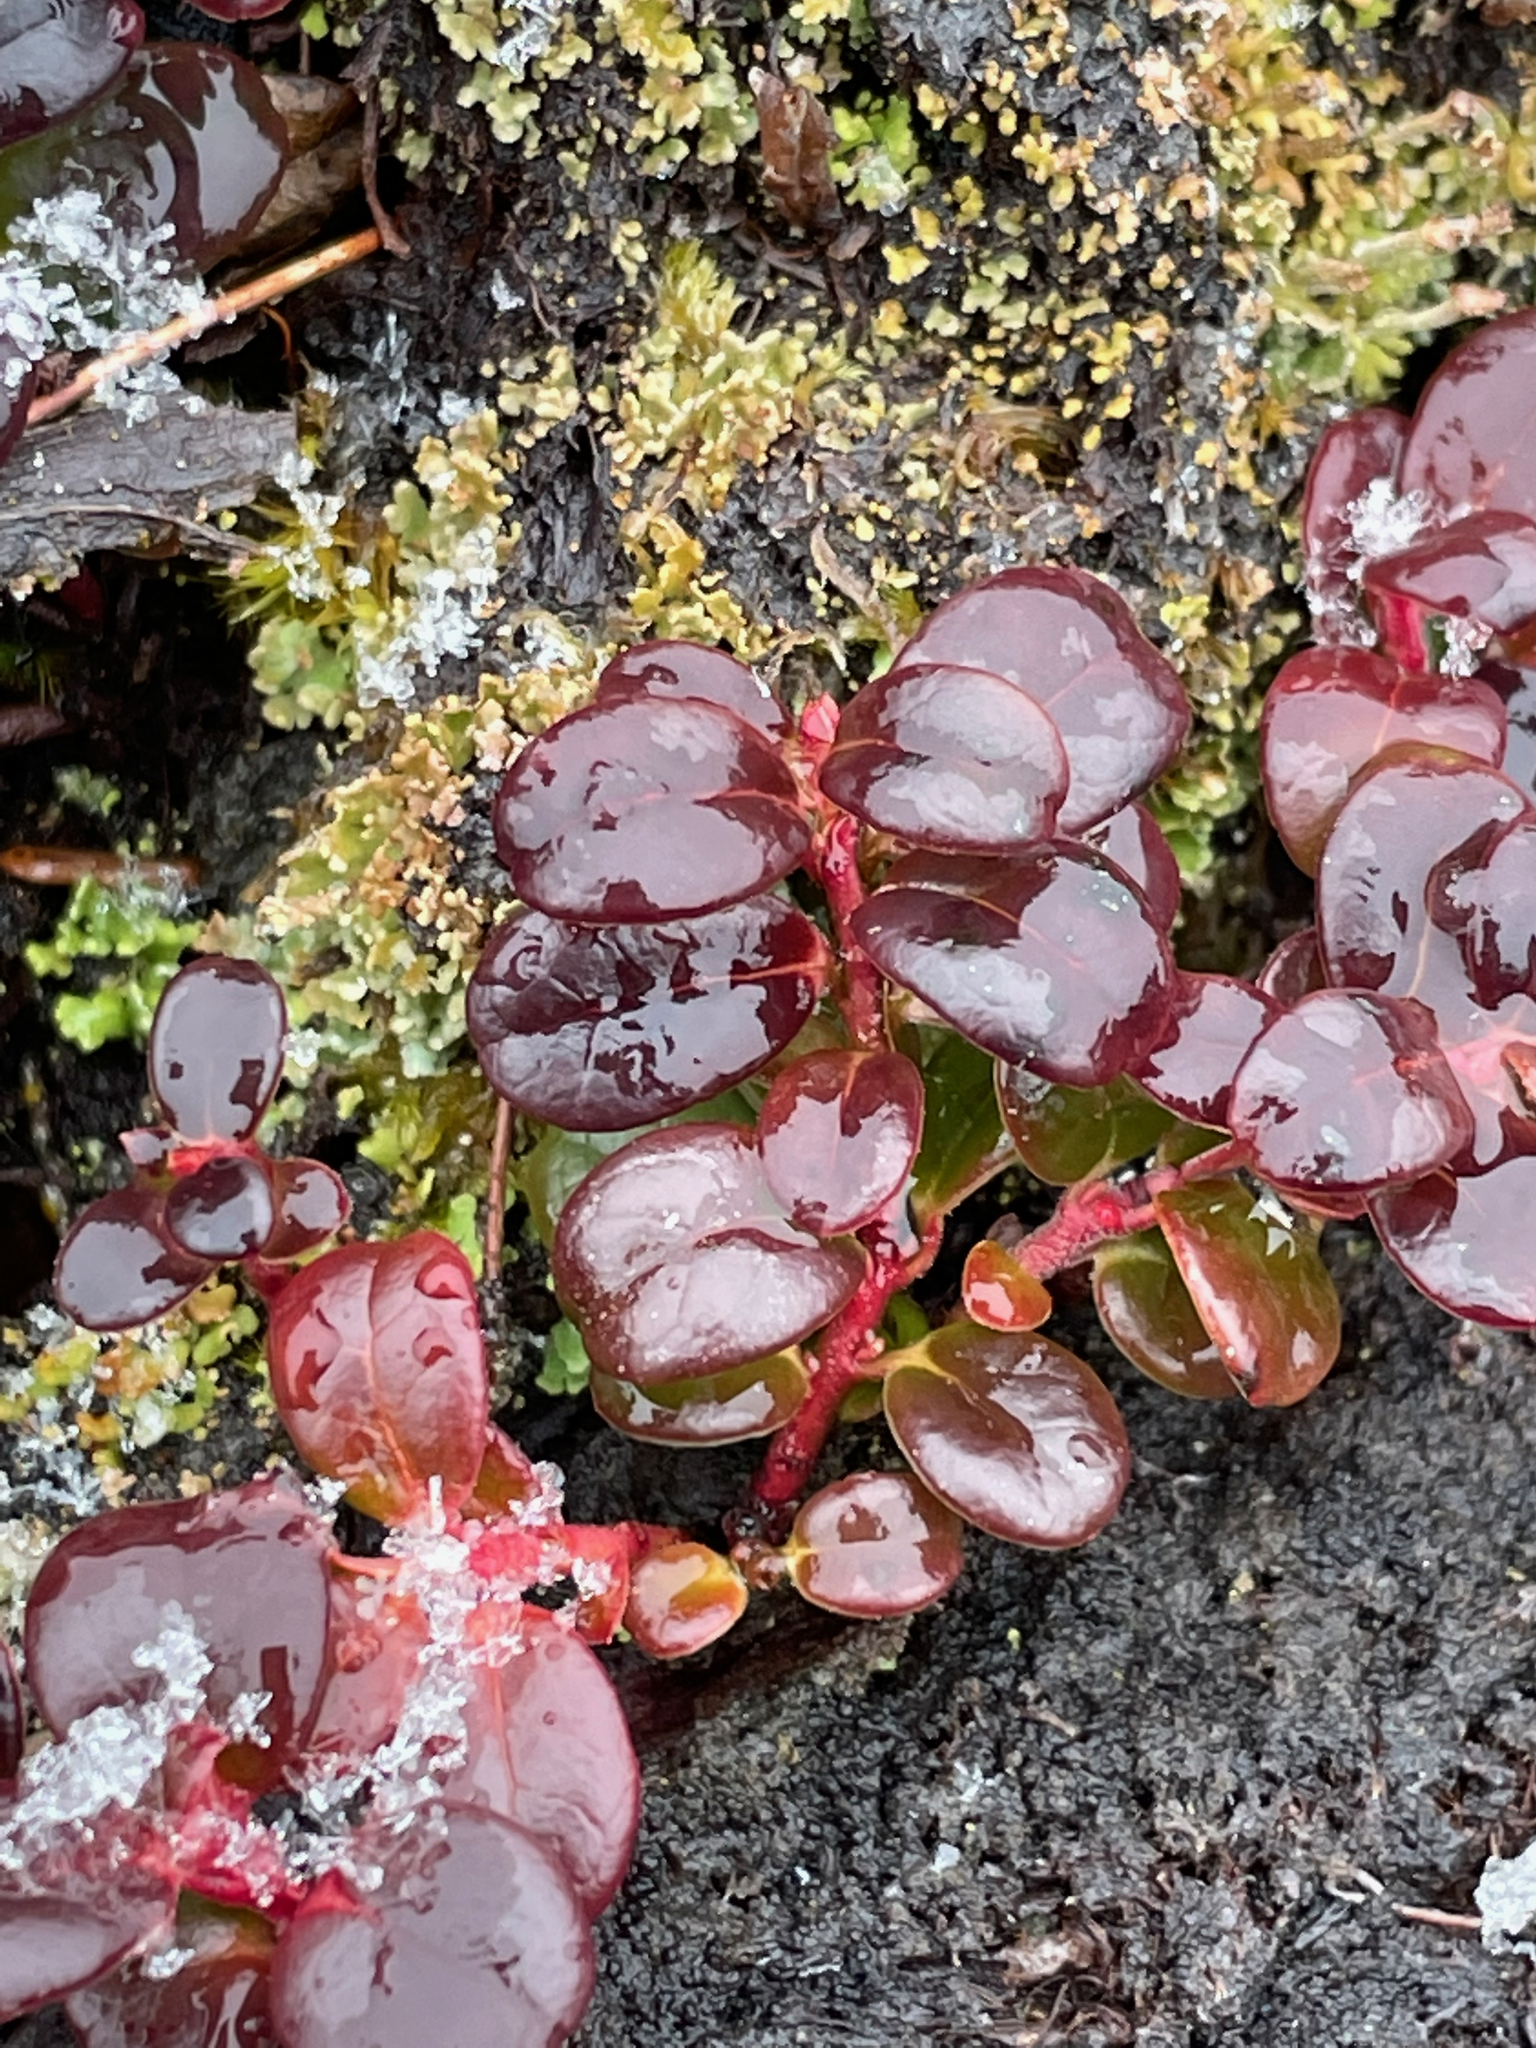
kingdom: Plantae
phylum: Tracheophyta
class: Magnoliopsida
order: Ericales
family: Ericaceae
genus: Vaccinium
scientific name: Vaccinium vitis-idaea
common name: Cowberry
